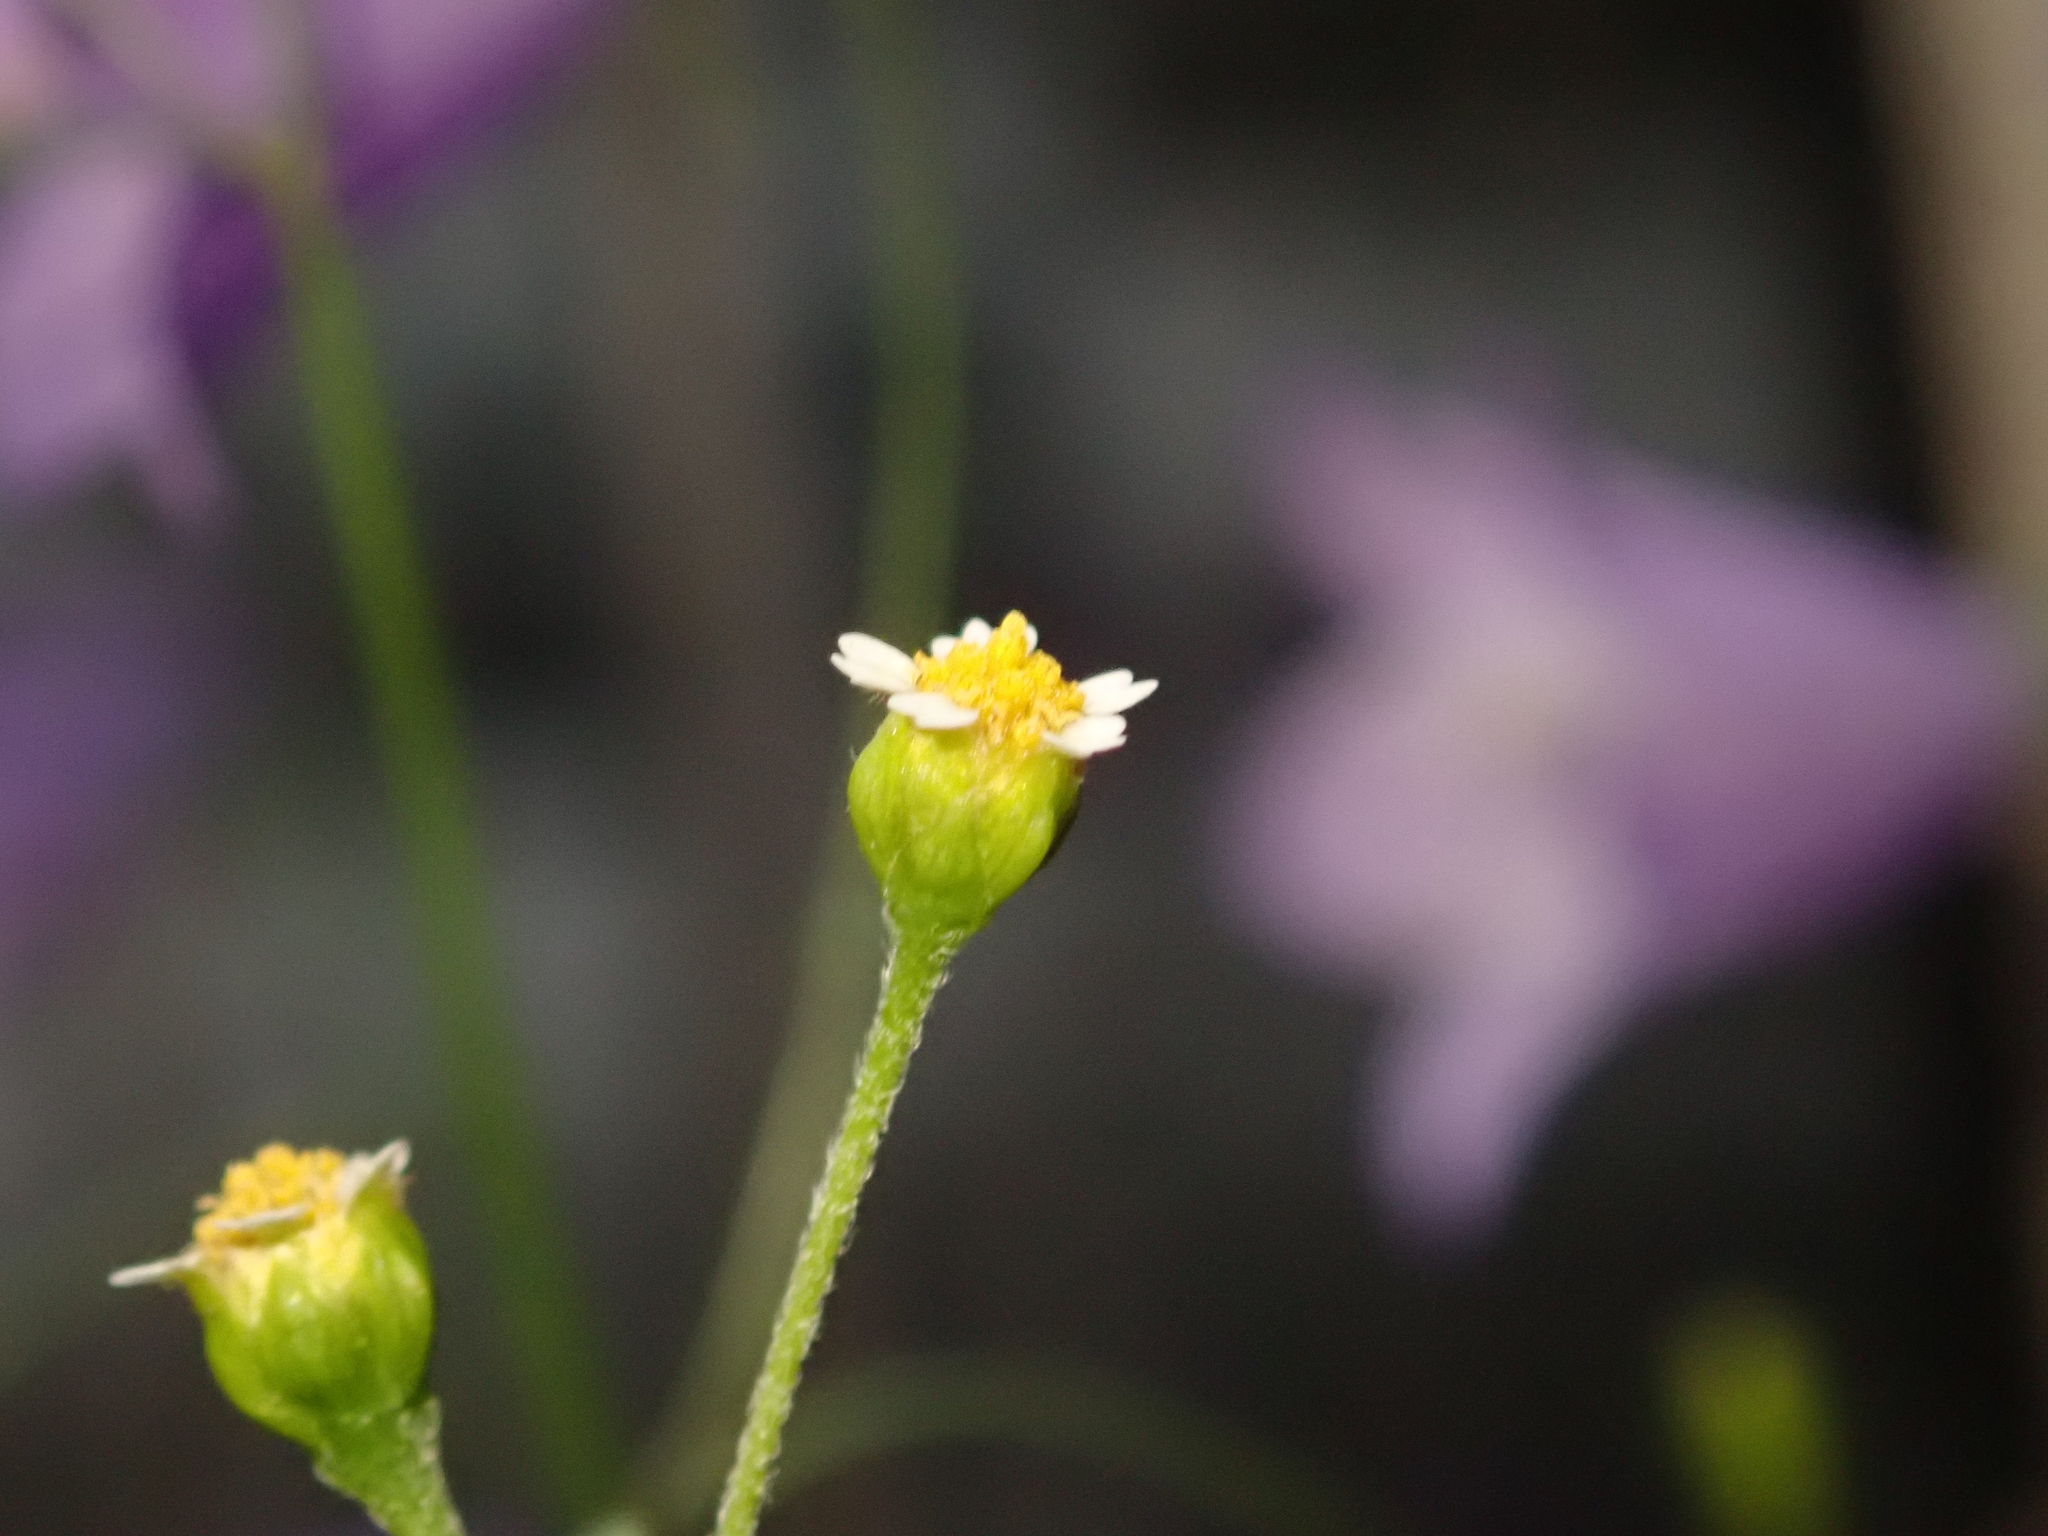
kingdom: Plantae
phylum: Tracheophyta
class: Magnoliopsida
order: Asterales
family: Asteraceae
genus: Galinsoga
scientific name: Galinsoga parviflora
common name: Gallant soldier
